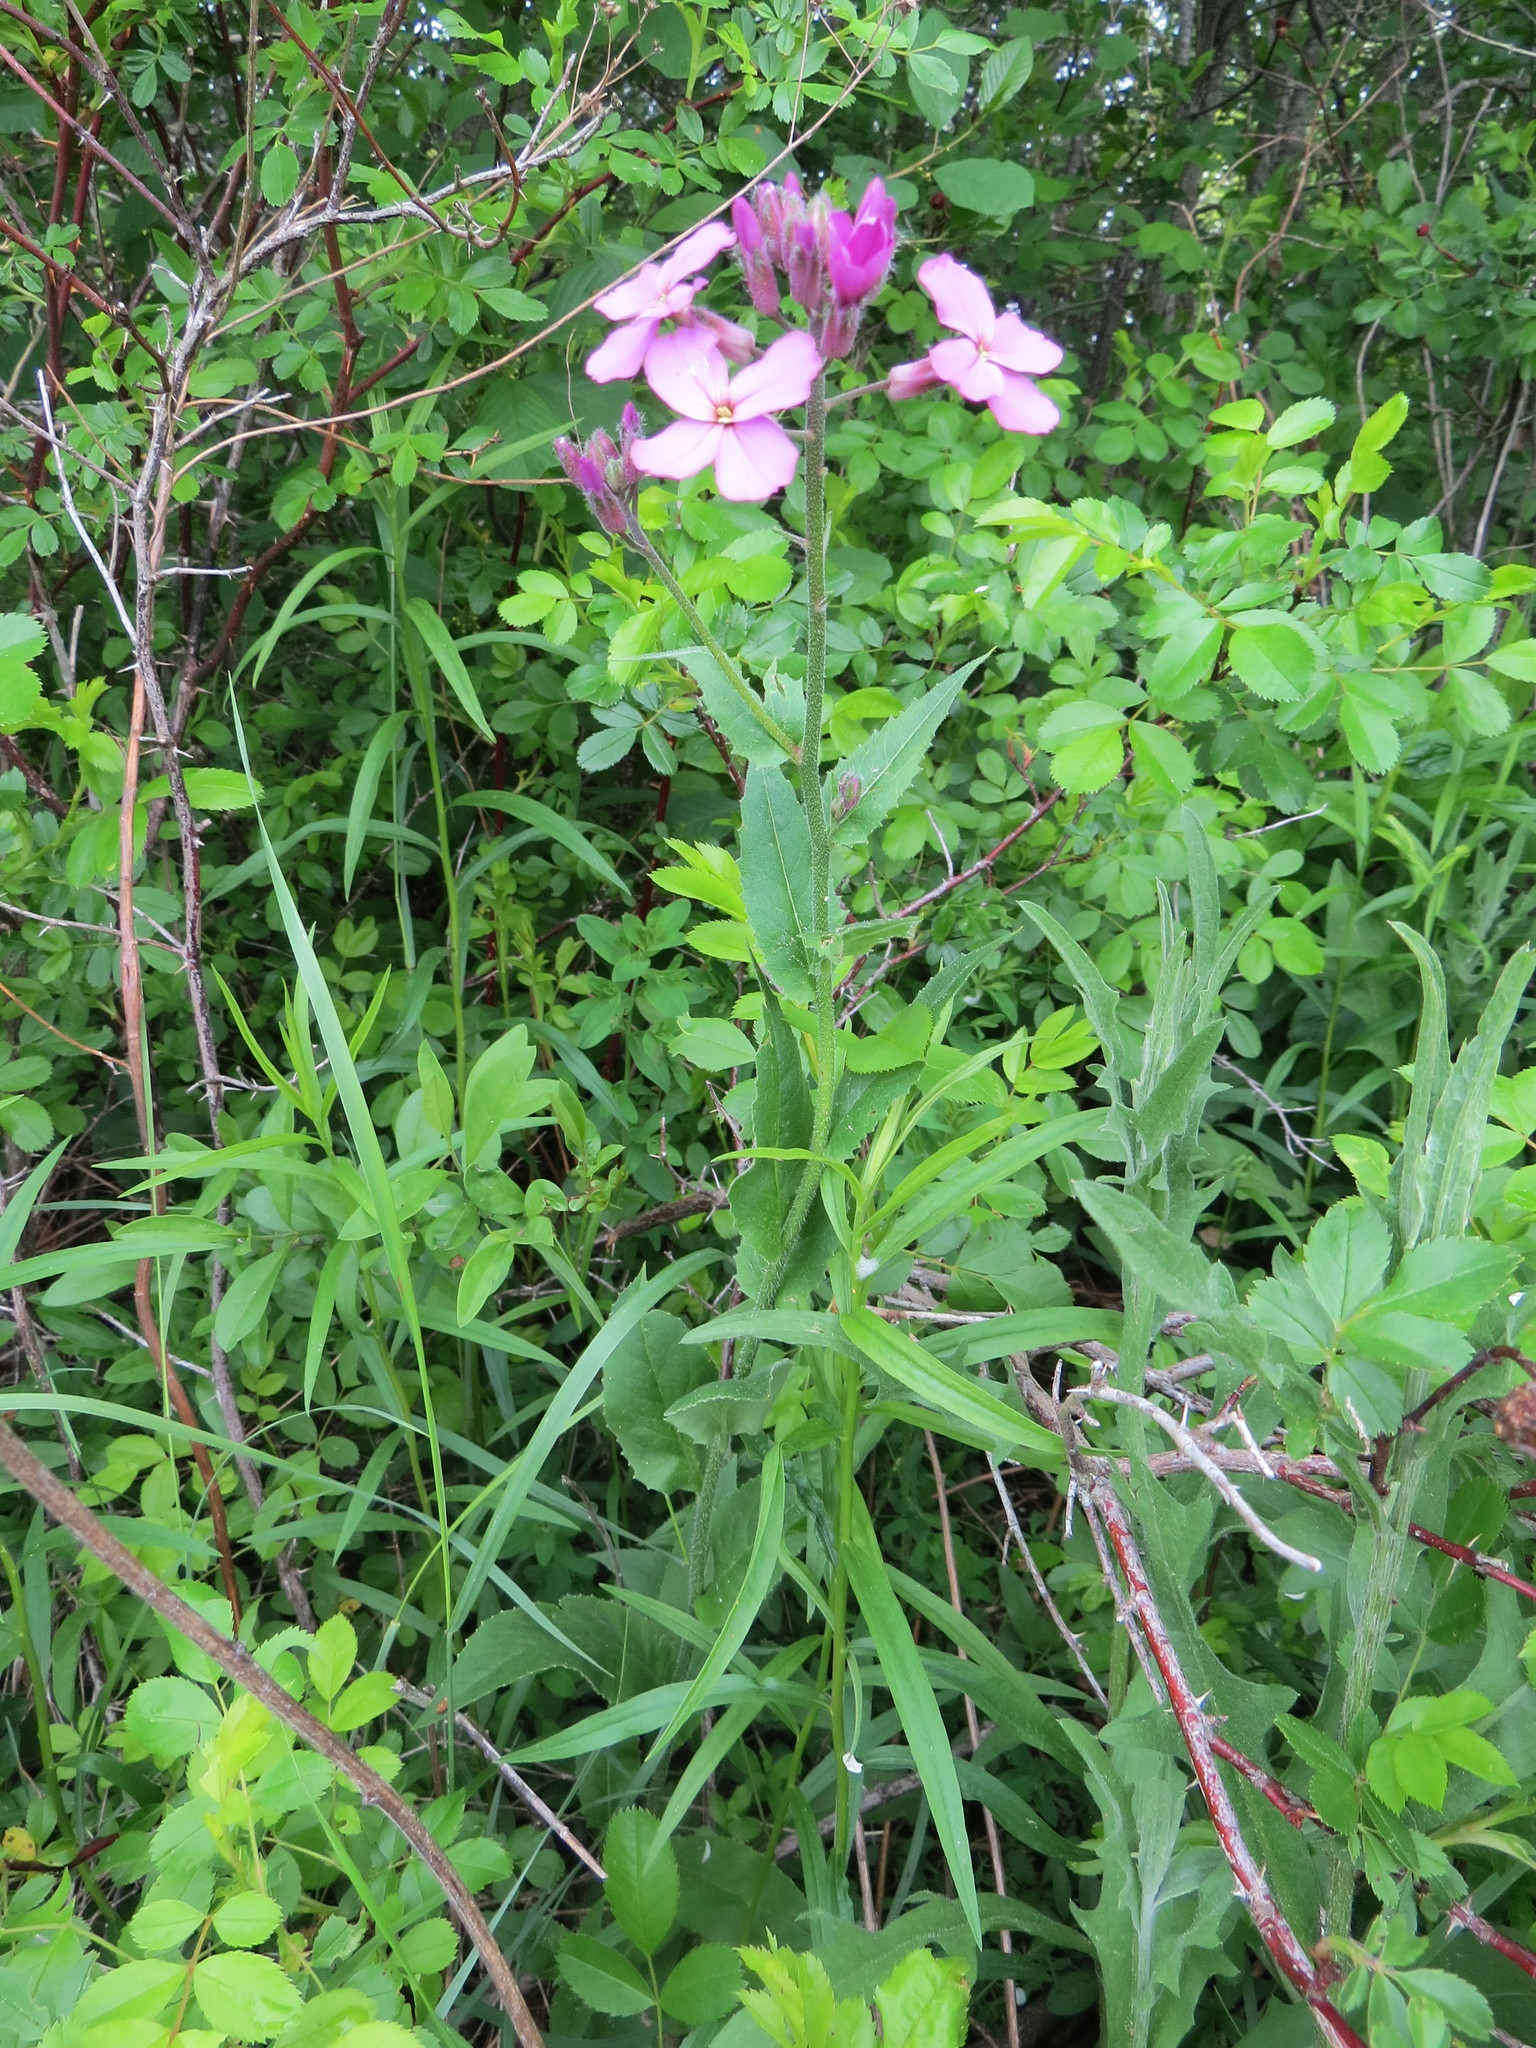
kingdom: Plantae
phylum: Tracheophyta
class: Magnoliopsida
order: Brassicales
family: Brassicaceae
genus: Hesperis
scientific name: Hesperis matronalis
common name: Dame's-violet
